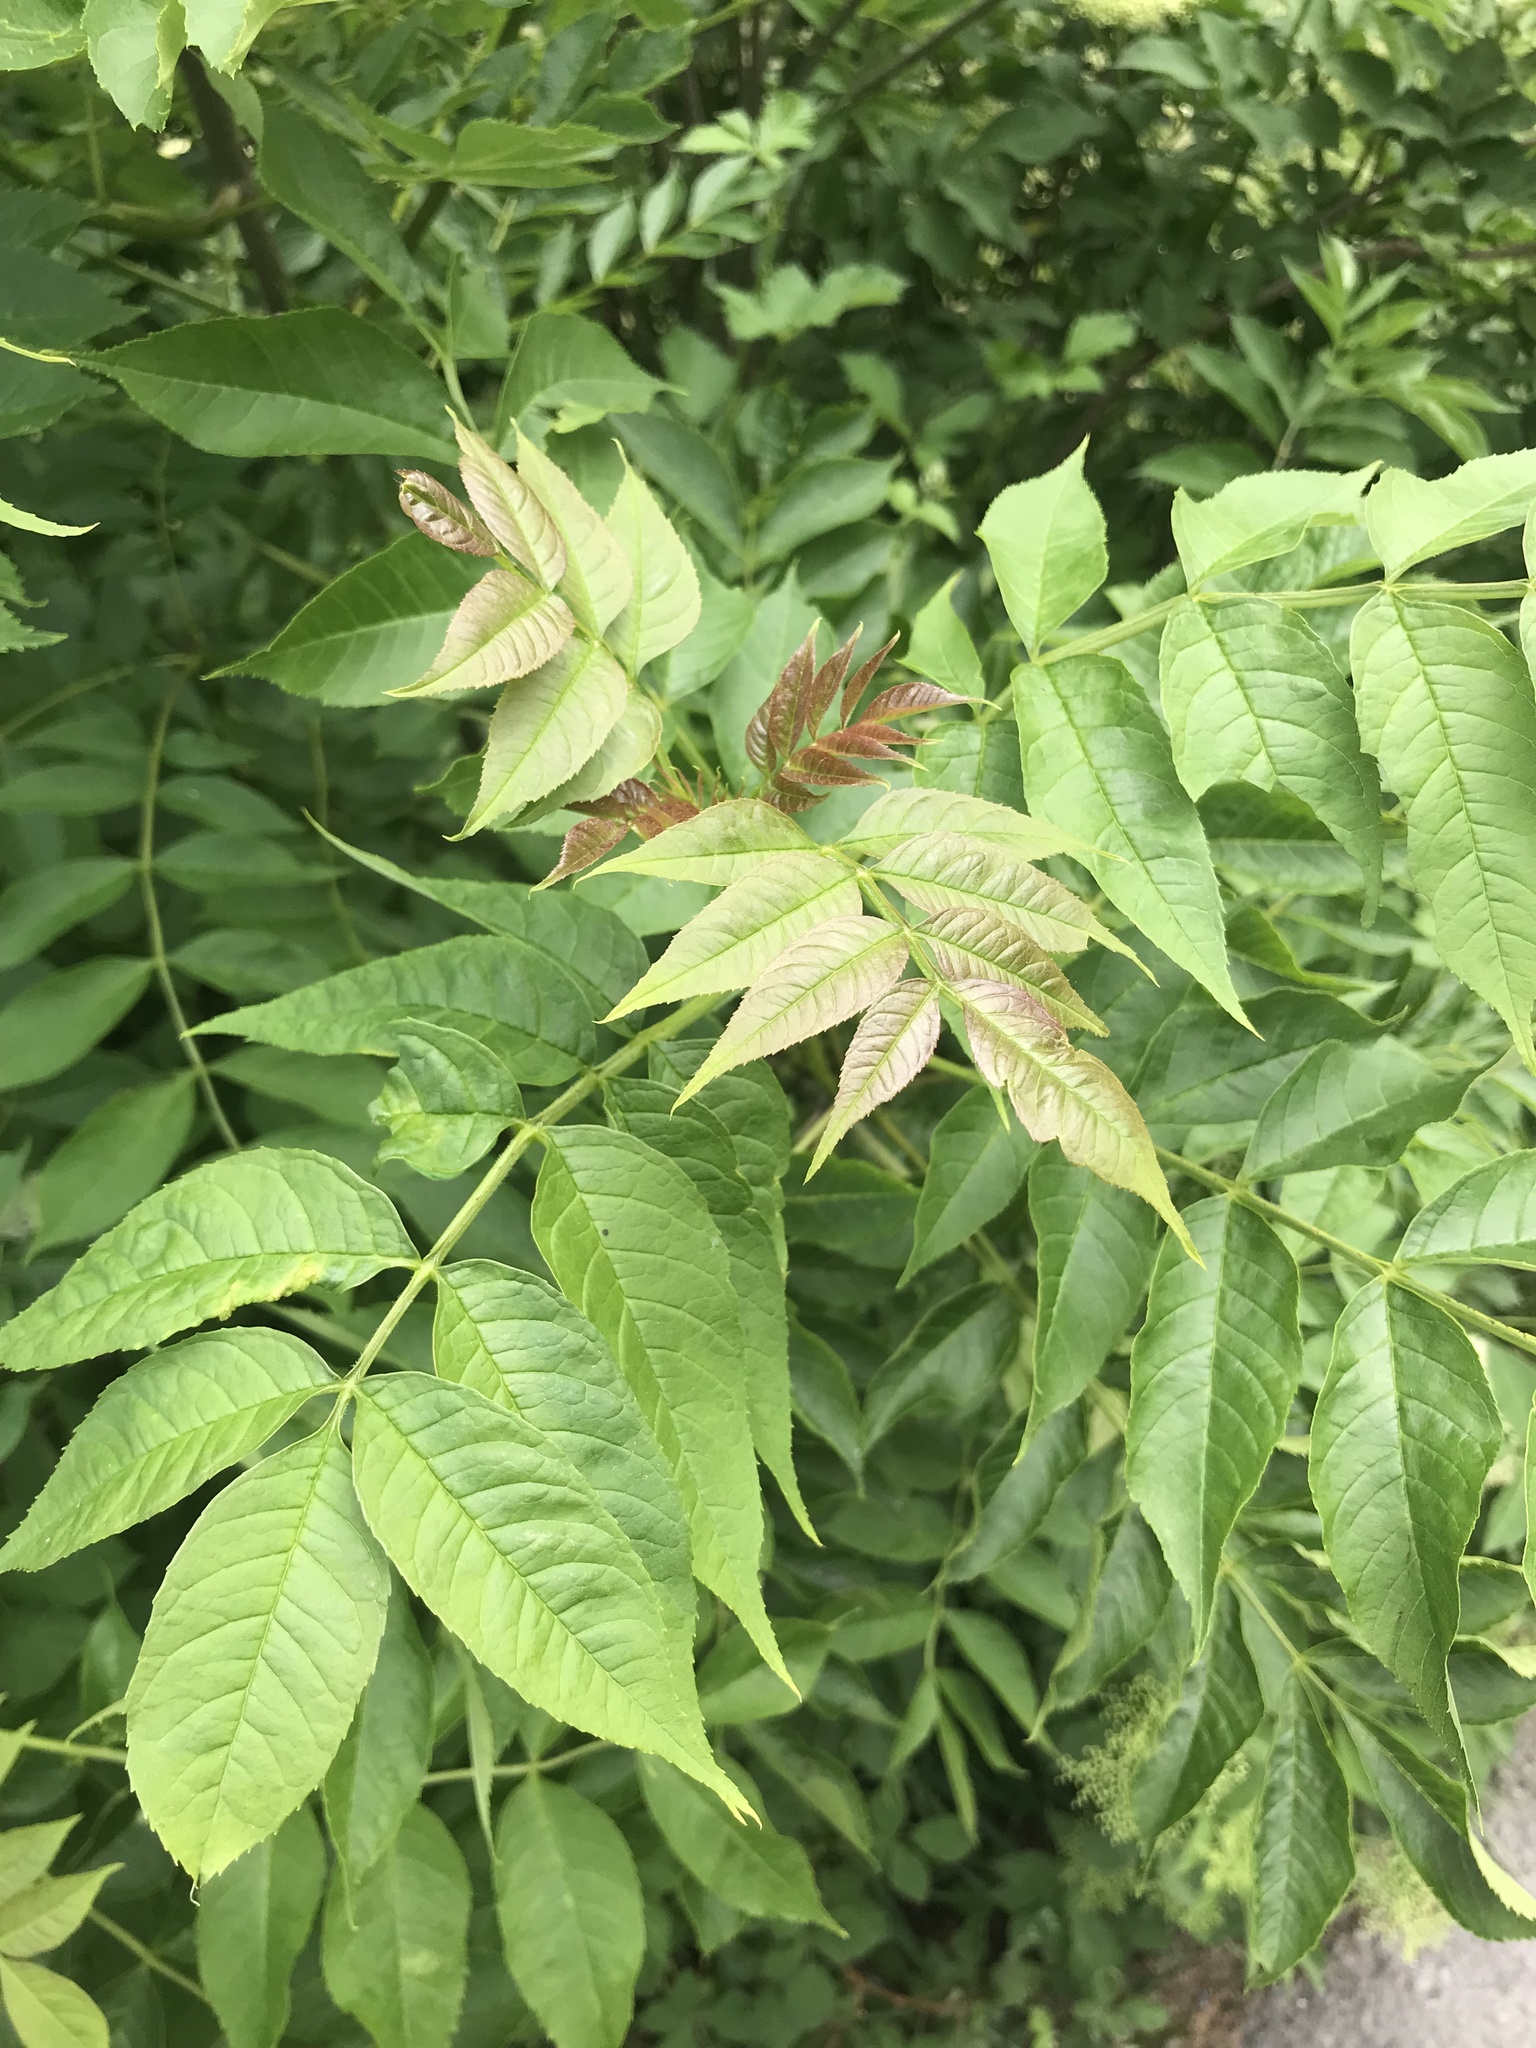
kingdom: Plantae
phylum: Tracheophyta
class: Magnoliopsida
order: Lamiales
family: Oleaceae
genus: Fraxinus
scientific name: Fraxinus excelsior
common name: European ash
